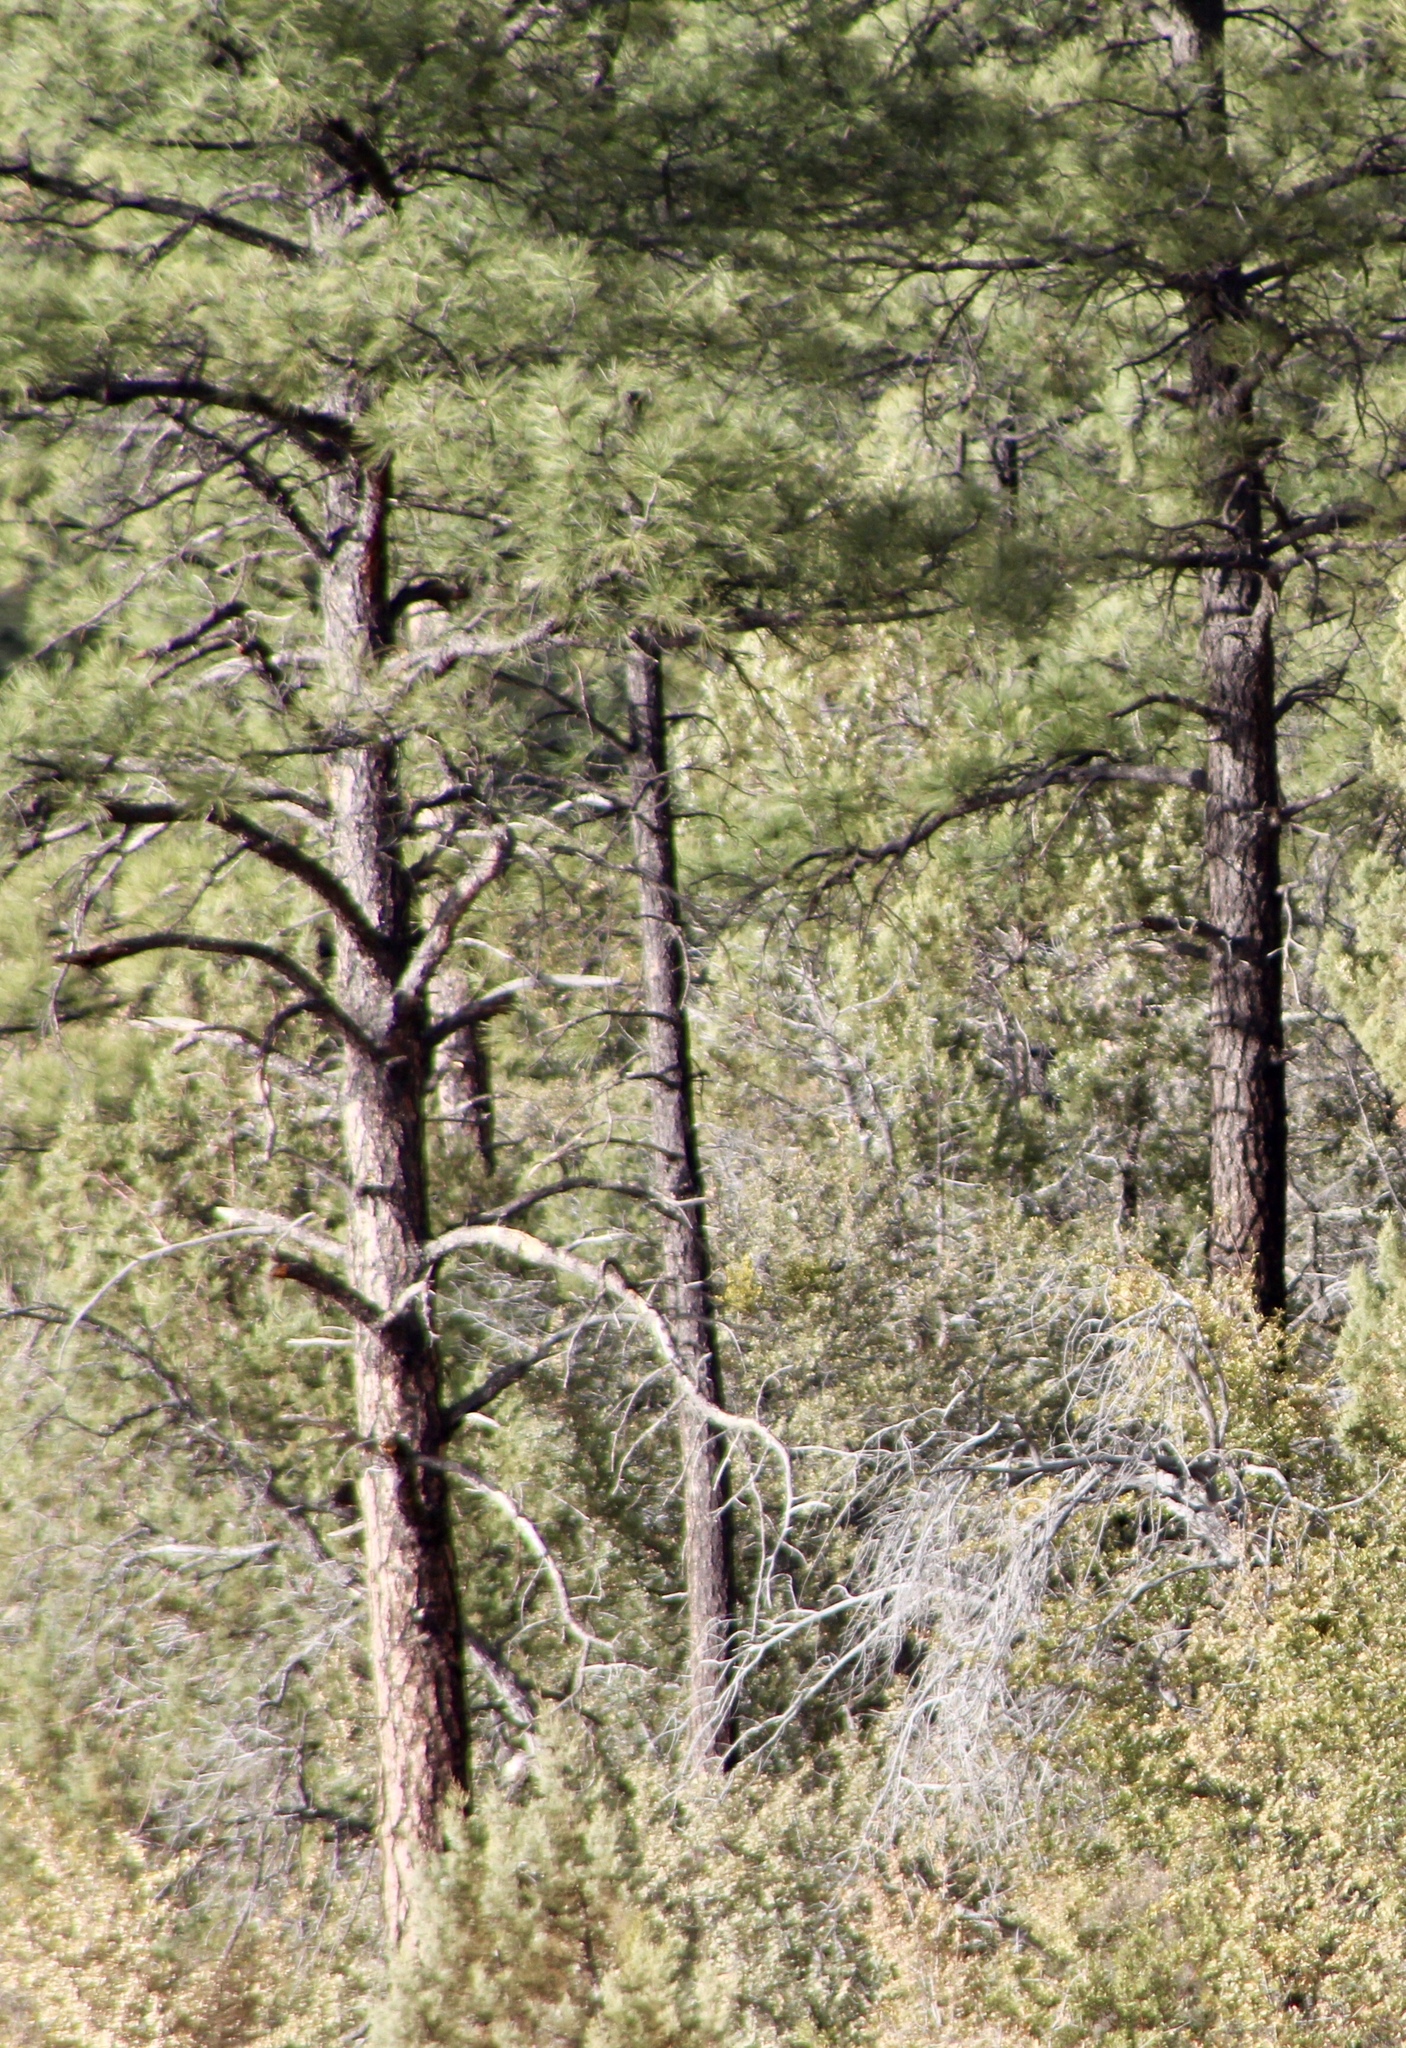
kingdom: Plantae
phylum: Tracheophyta
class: Pinopsida
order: Pinales
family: Pinaceae
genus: Pinus
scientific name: Pinus ponderosa
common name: Western yellow-pine
